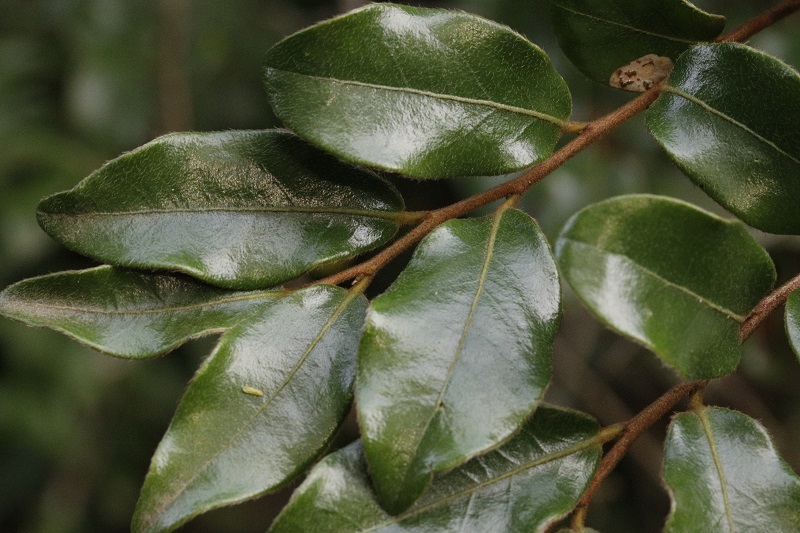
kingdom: Plantae
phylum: Tracheophyta
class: Magnoliopsida
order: Ericales
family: Ebenaceae
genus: Diospyros
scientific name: Diospyros whyteana
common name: Bladder-nut
